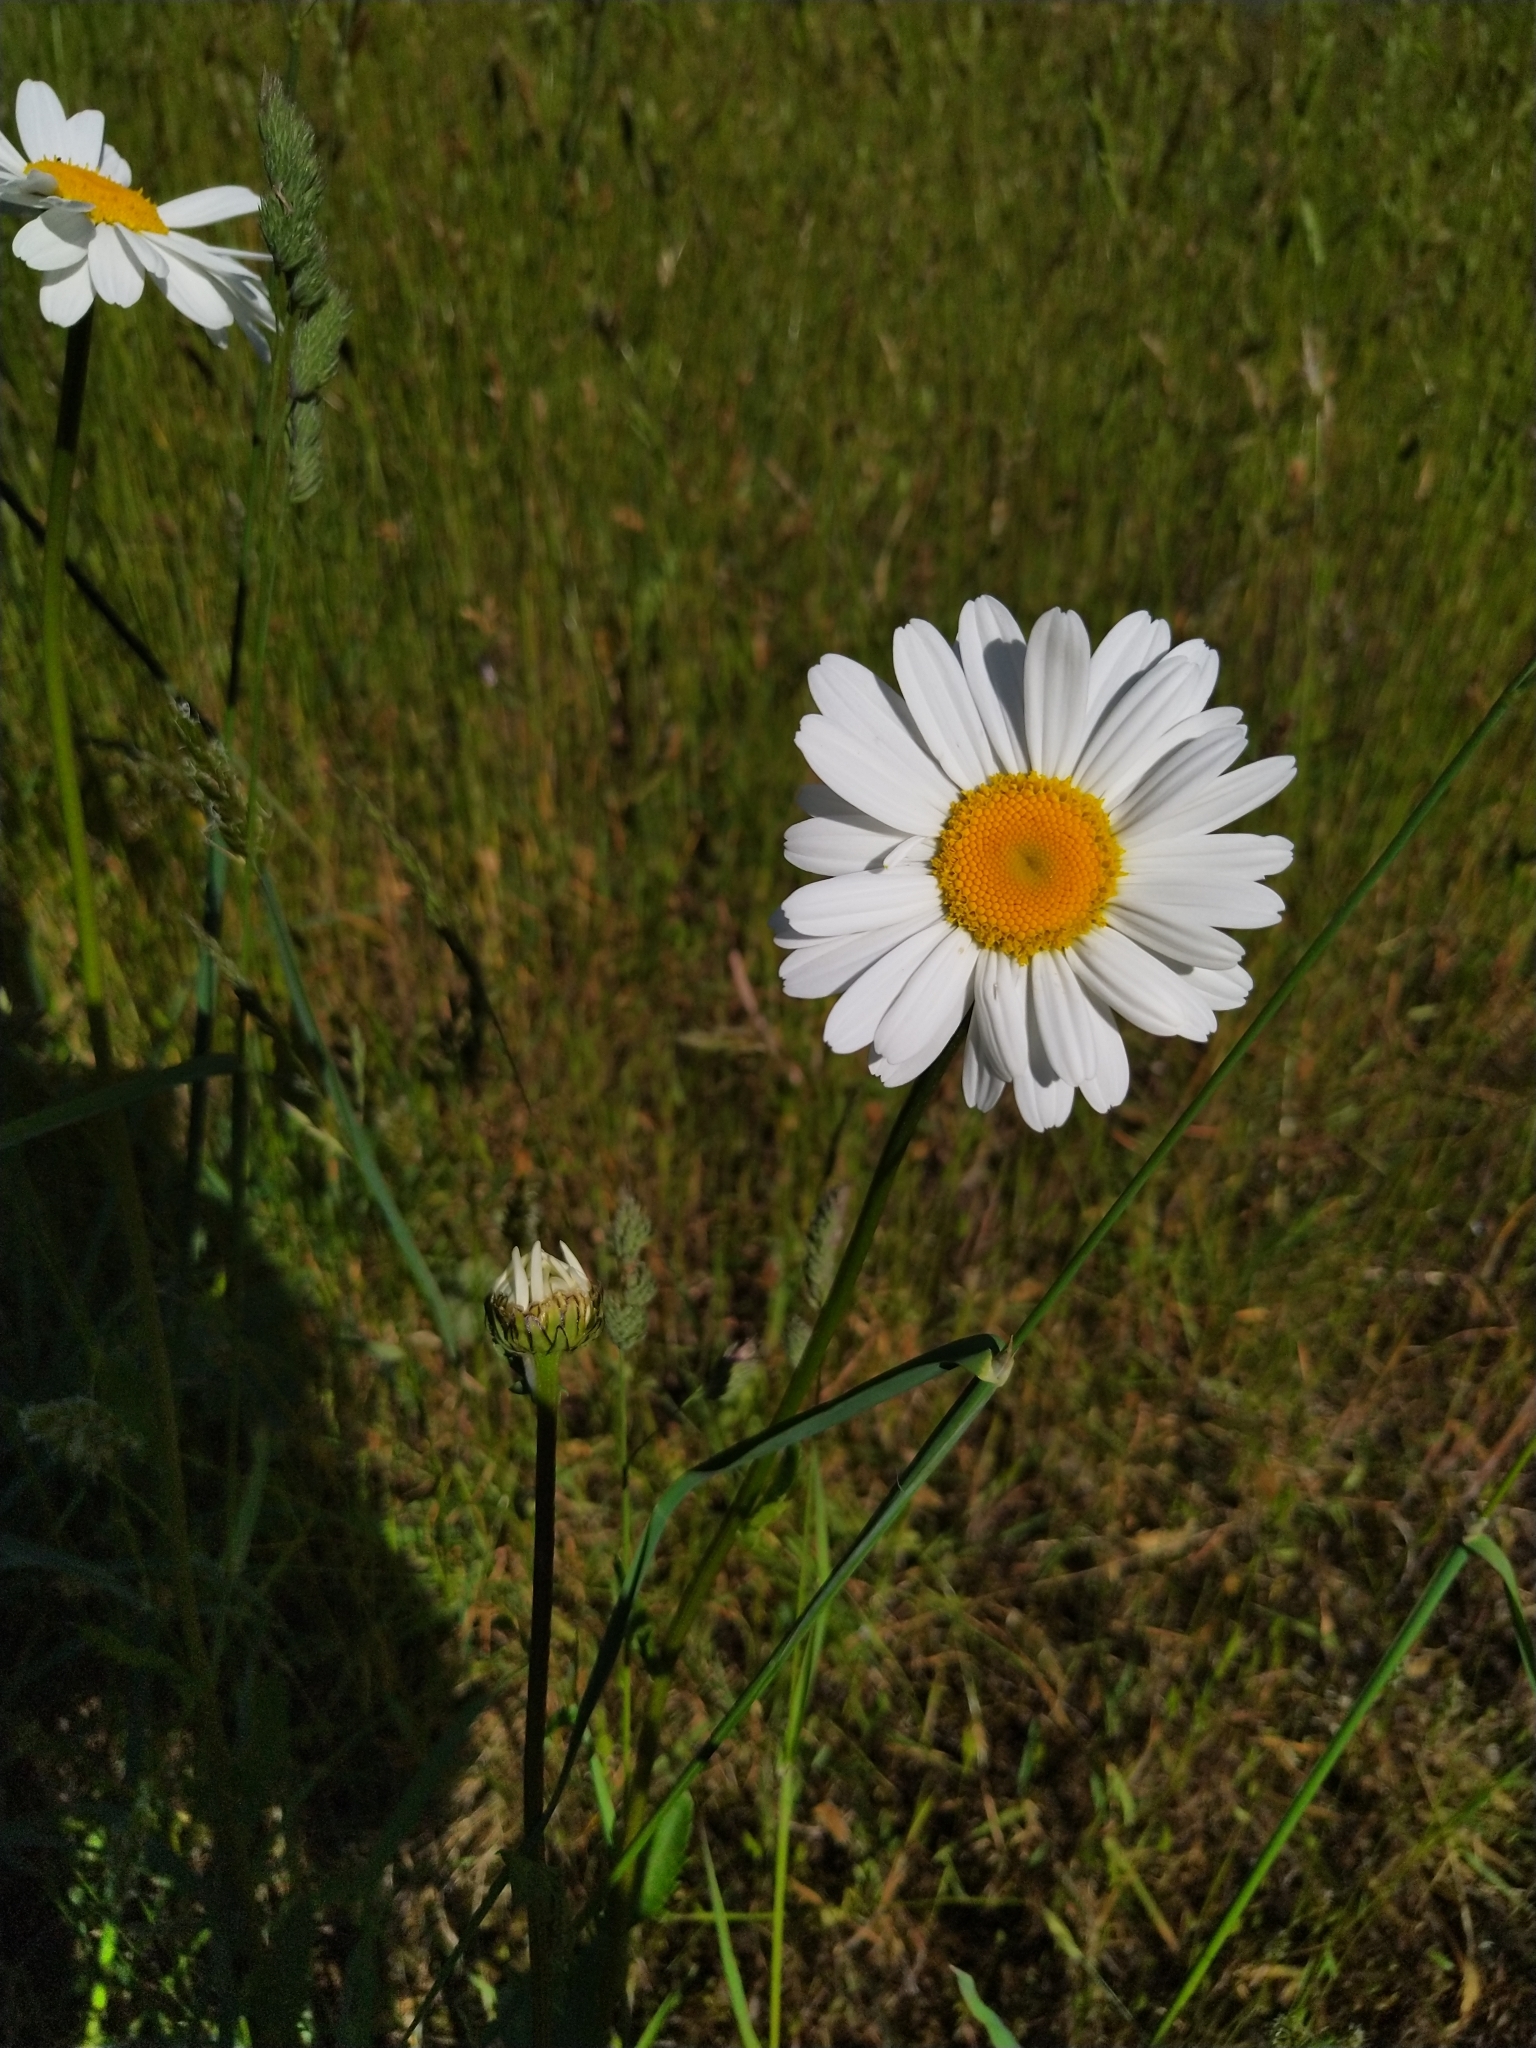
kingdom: Plantae
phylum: Tracheophyta
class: Magnoliopsida
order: Asterales
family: Asteraceae
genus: Leucanthemum
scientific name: Leucanthemum vulgare
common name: Oxeye daisy
